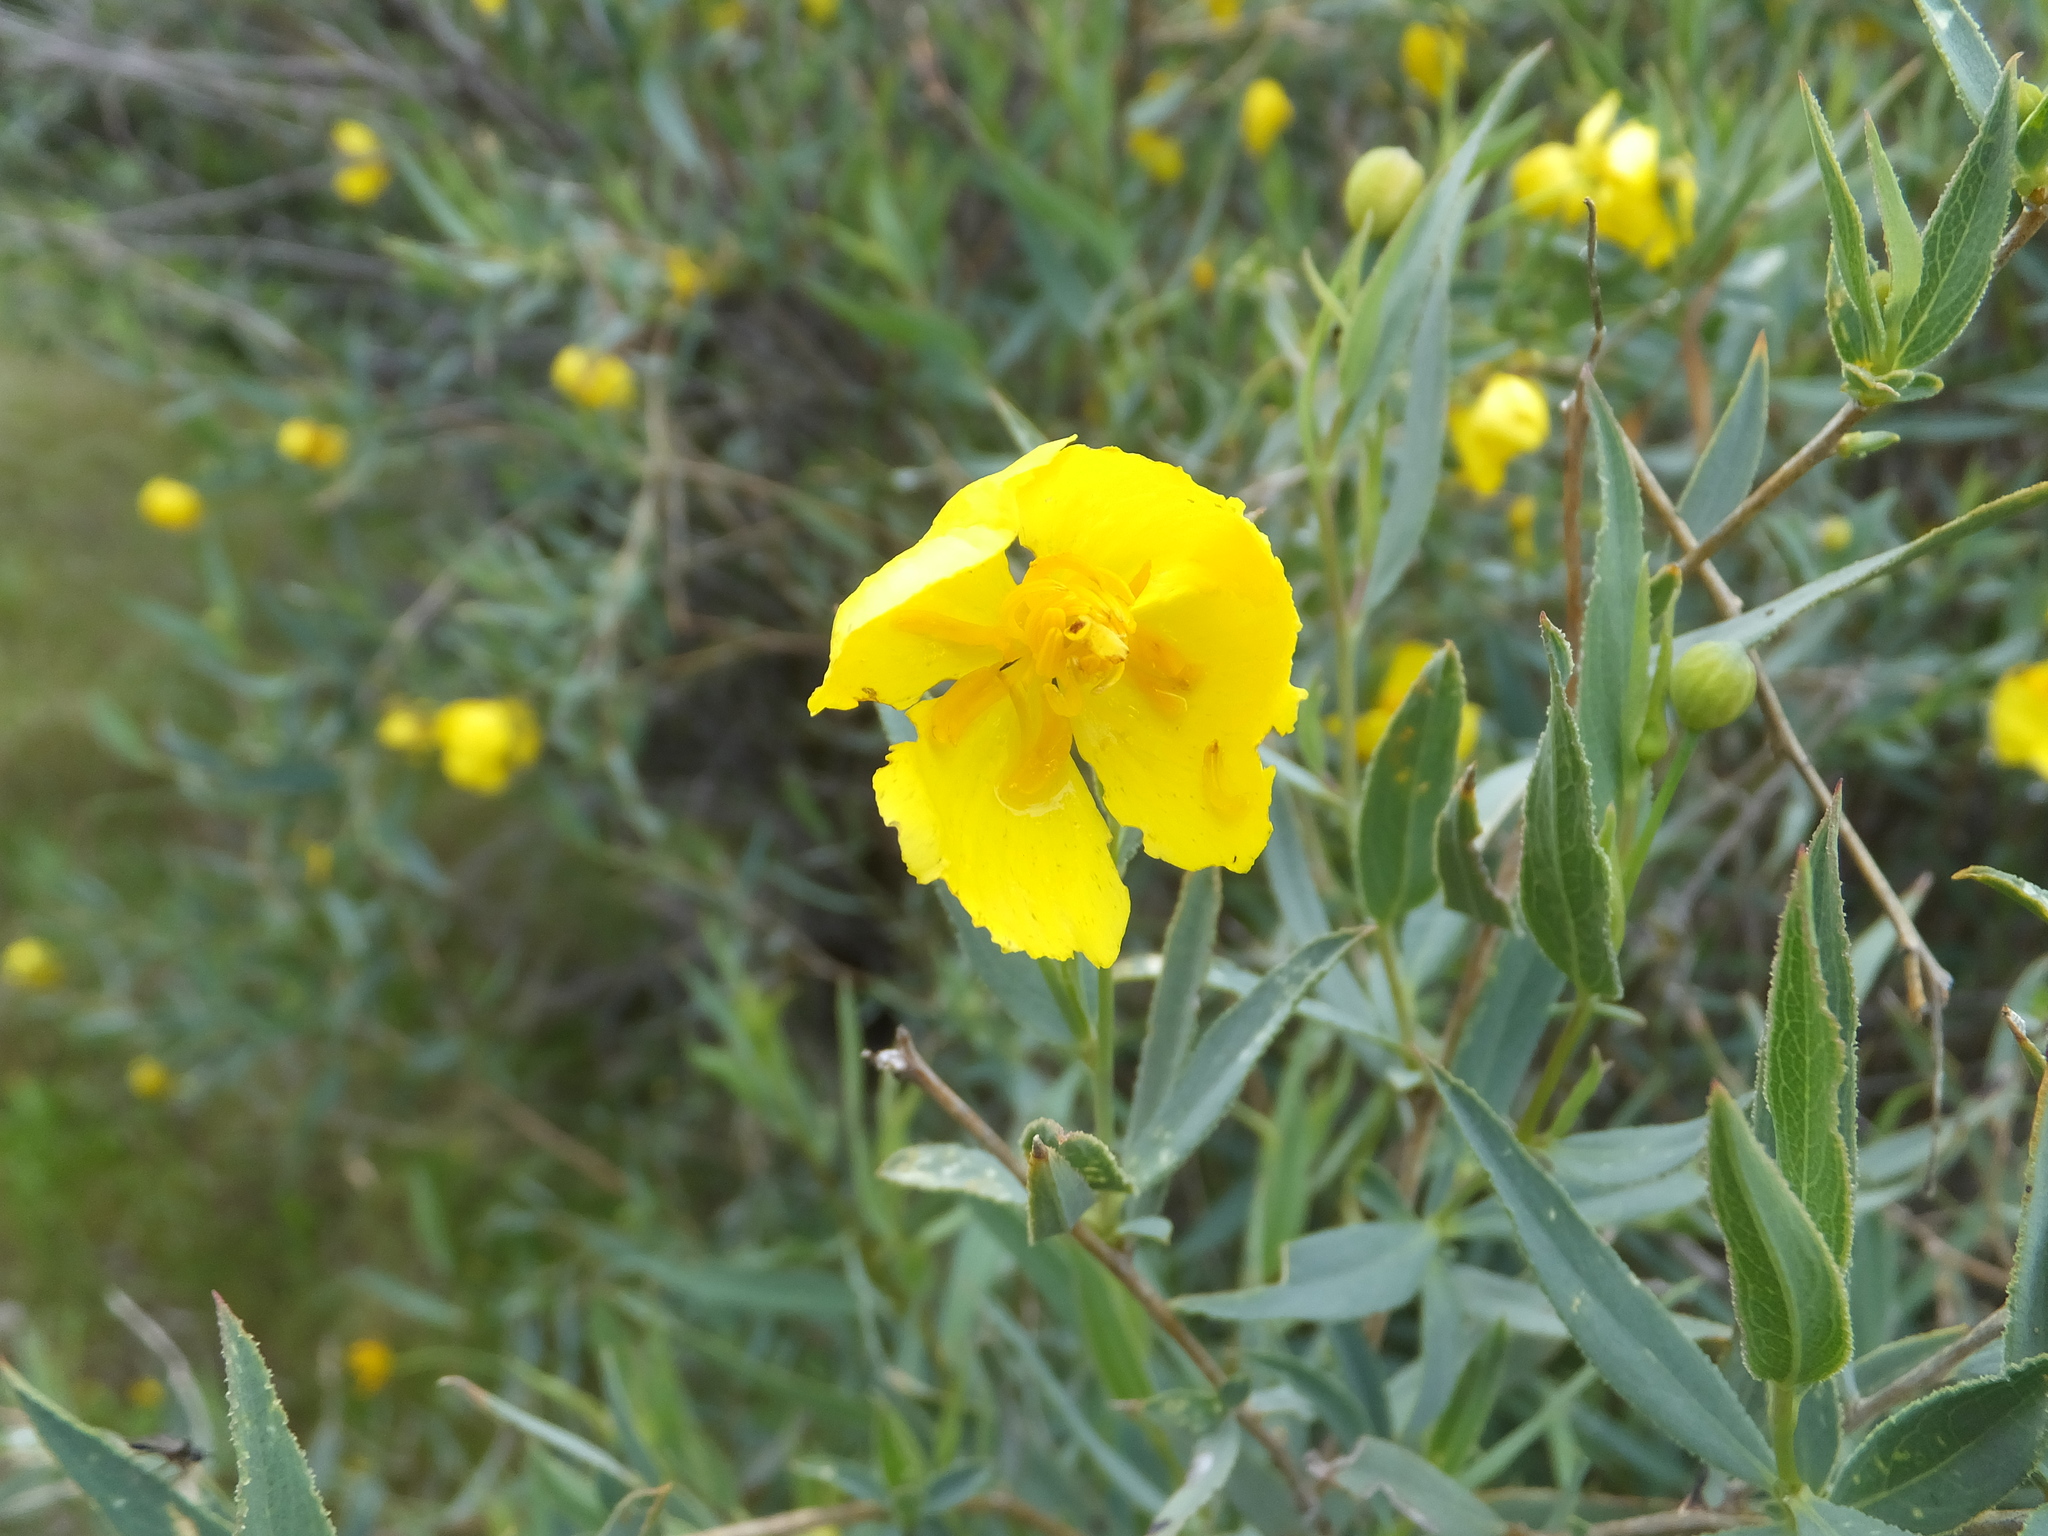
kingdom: Plantae
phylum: Tracheophyta
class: Magnoliopsida
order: Ranunculales
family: Papaveraceae
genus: Dendromecon
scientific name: Dendromecon rigida
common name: Tree poppy
